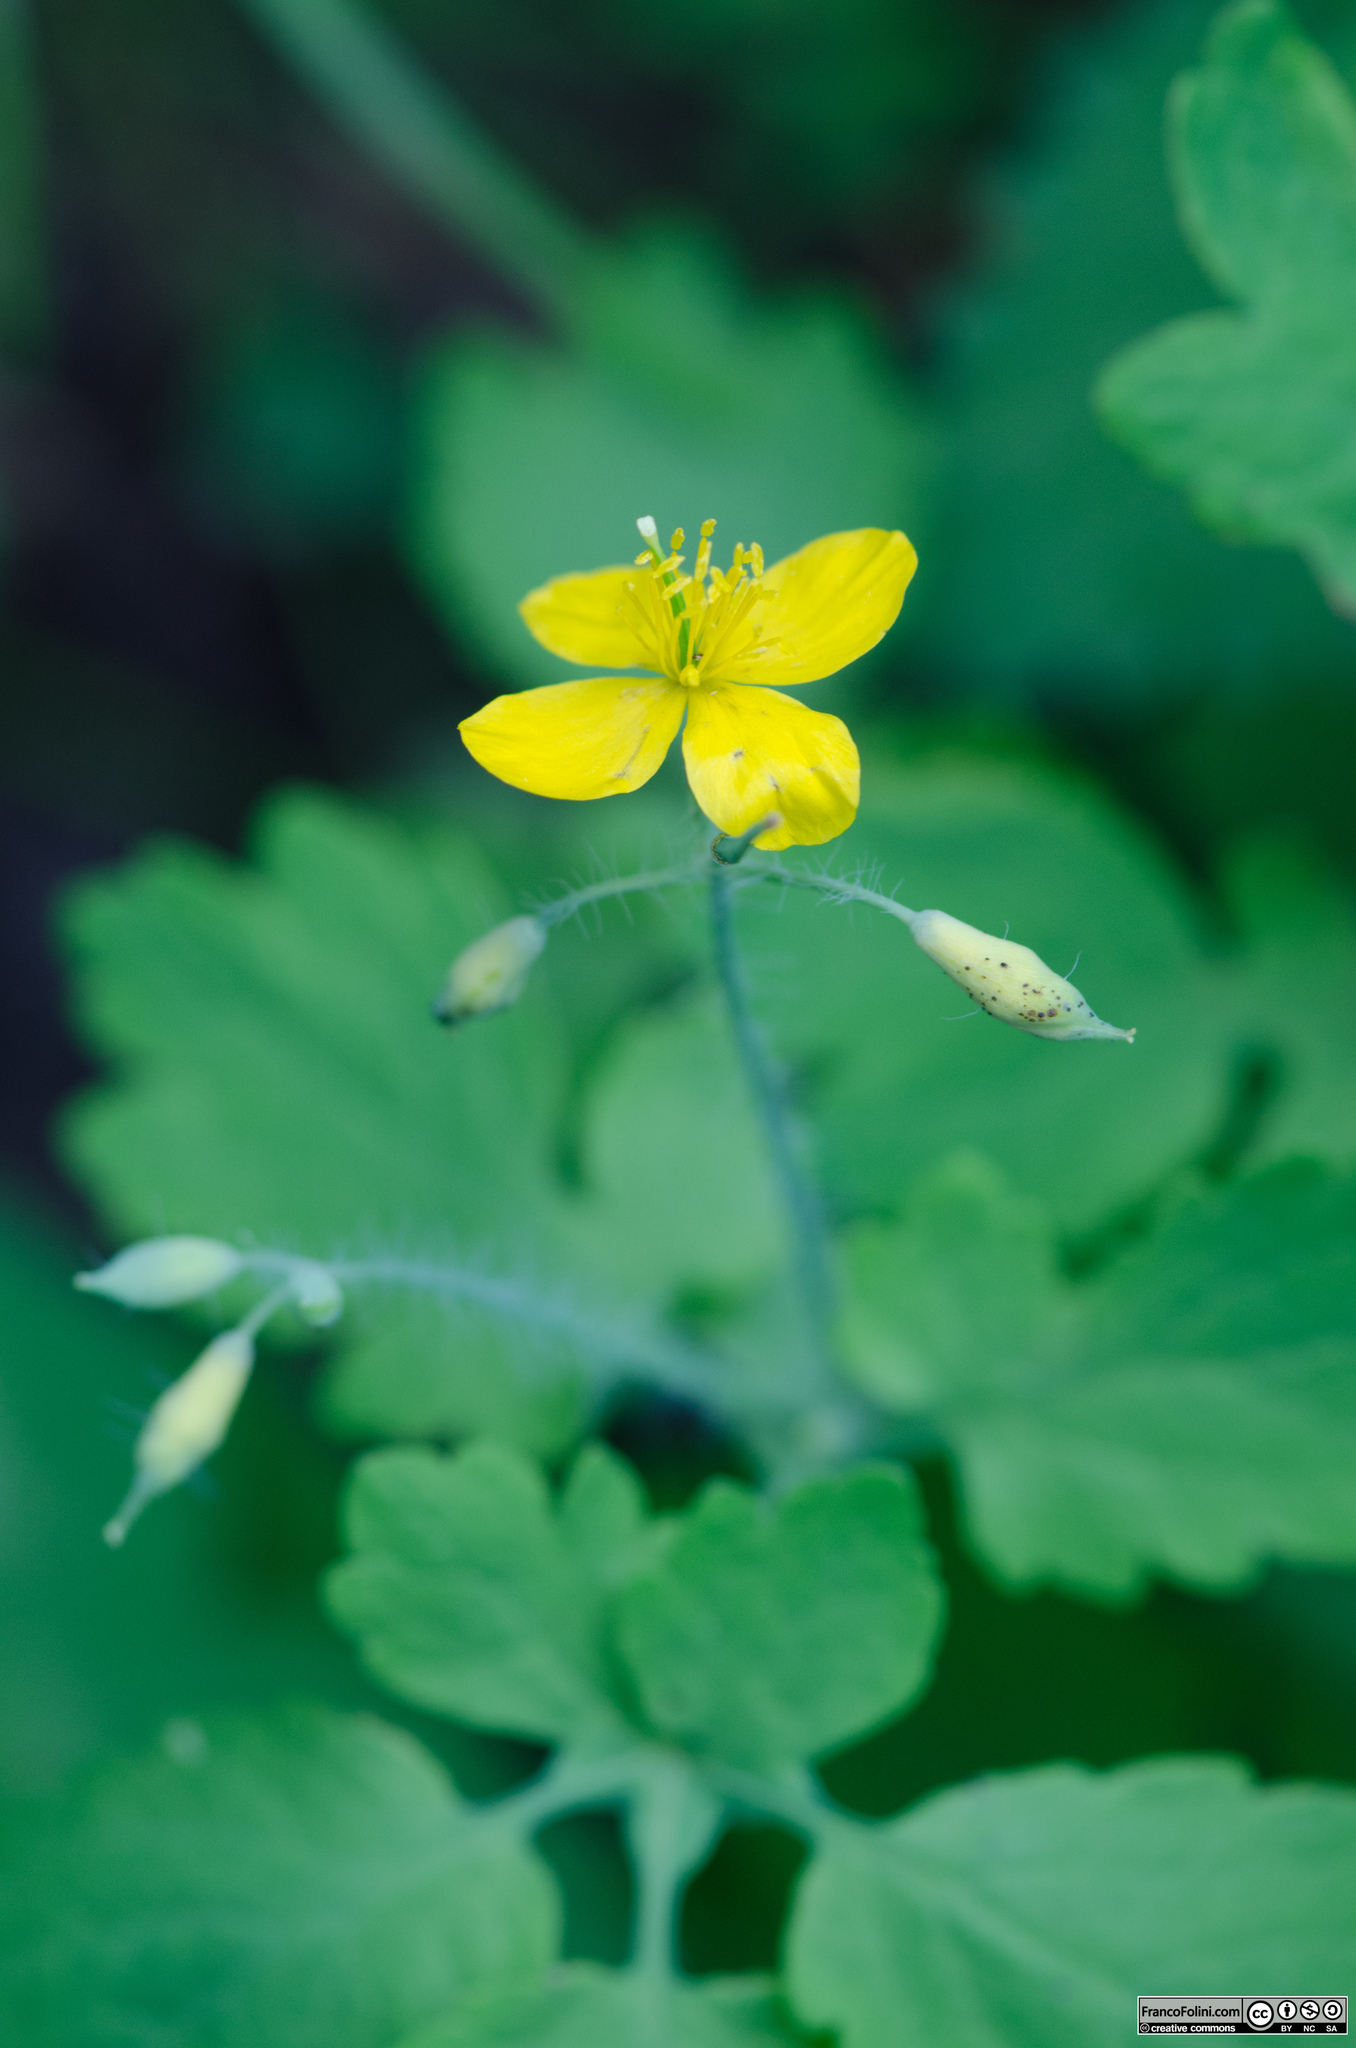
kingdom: Plantae
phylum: Tracheophyta
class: Magnoliopsida
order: Ranunculales
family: Papaveraceae
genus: Chelidonium
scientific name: Chelidonium majus
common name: Greater celandine
